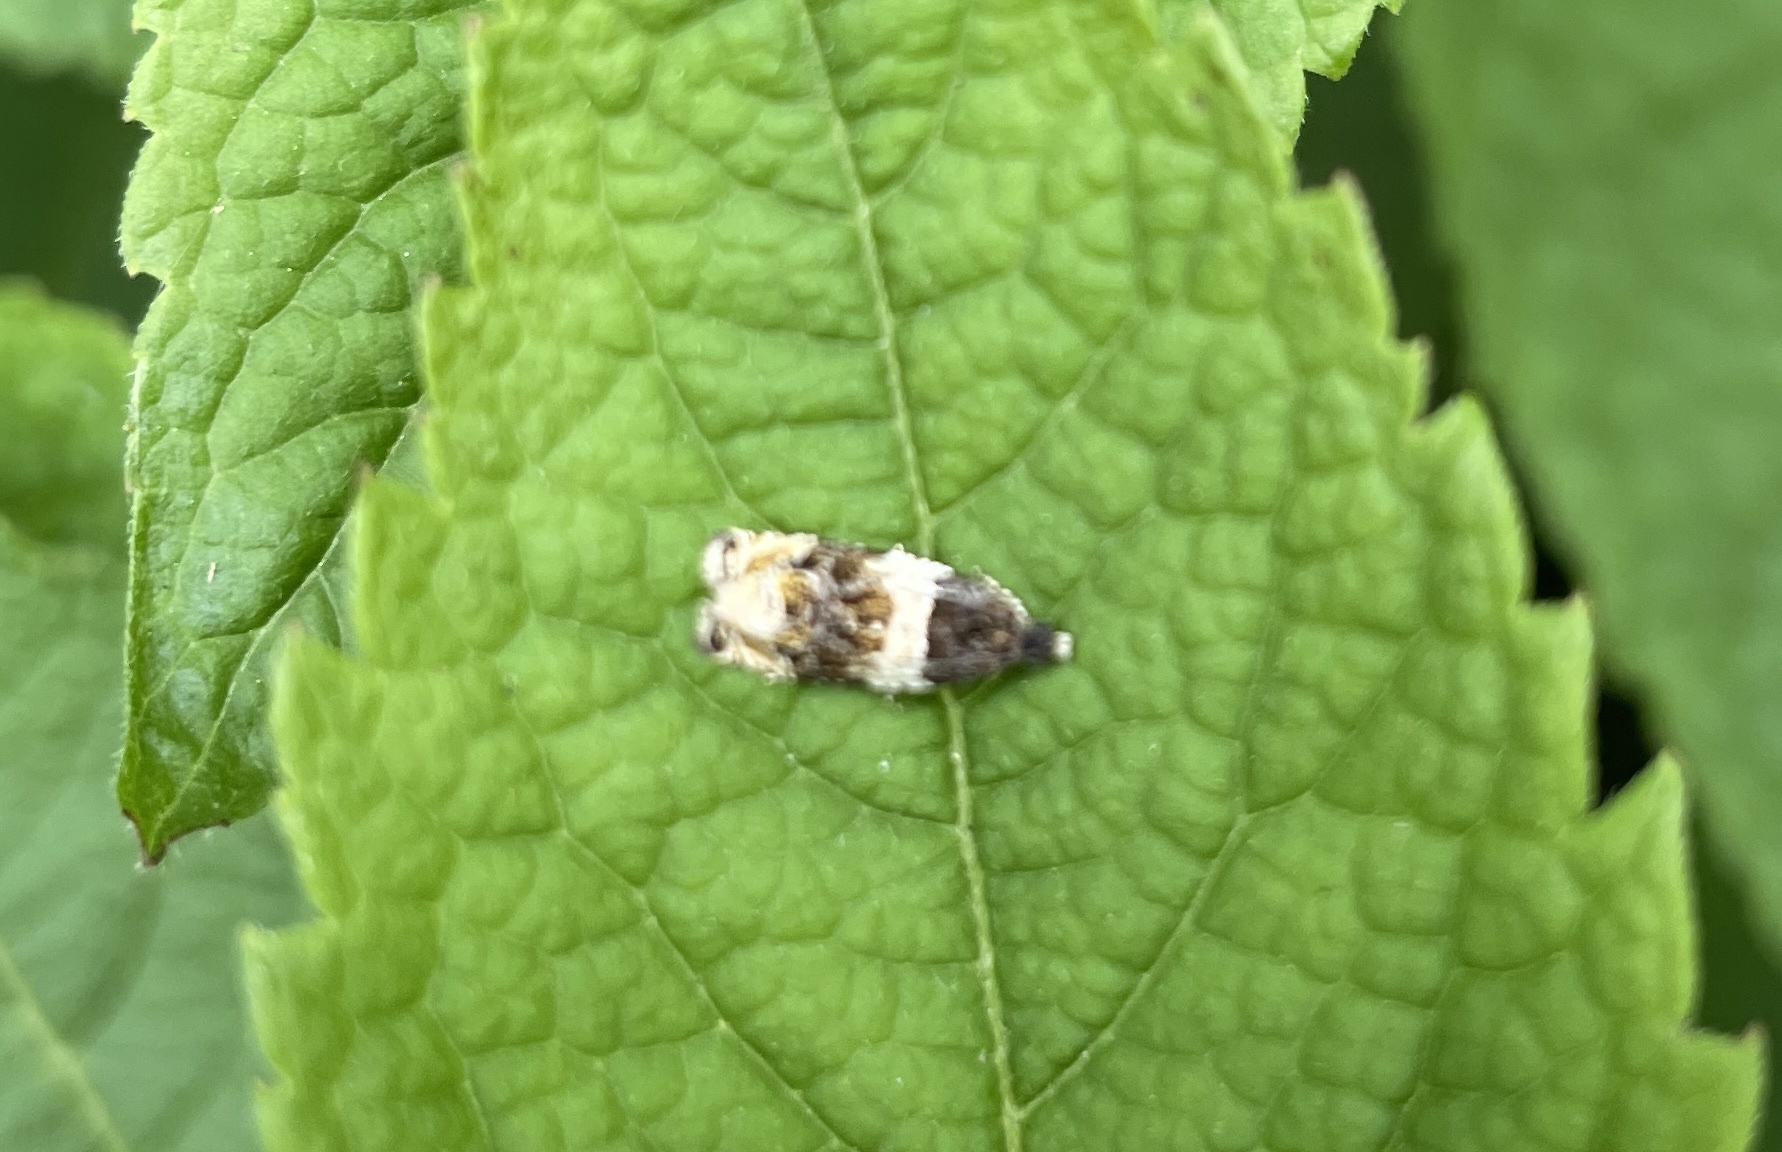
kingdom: Animalia
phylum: Arthropoda
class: Insecta
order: Lepidoptera
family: Tortricidae
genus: Olethreutes
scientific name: Olethreutes fasciatana
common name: Banded olethreutes moth
